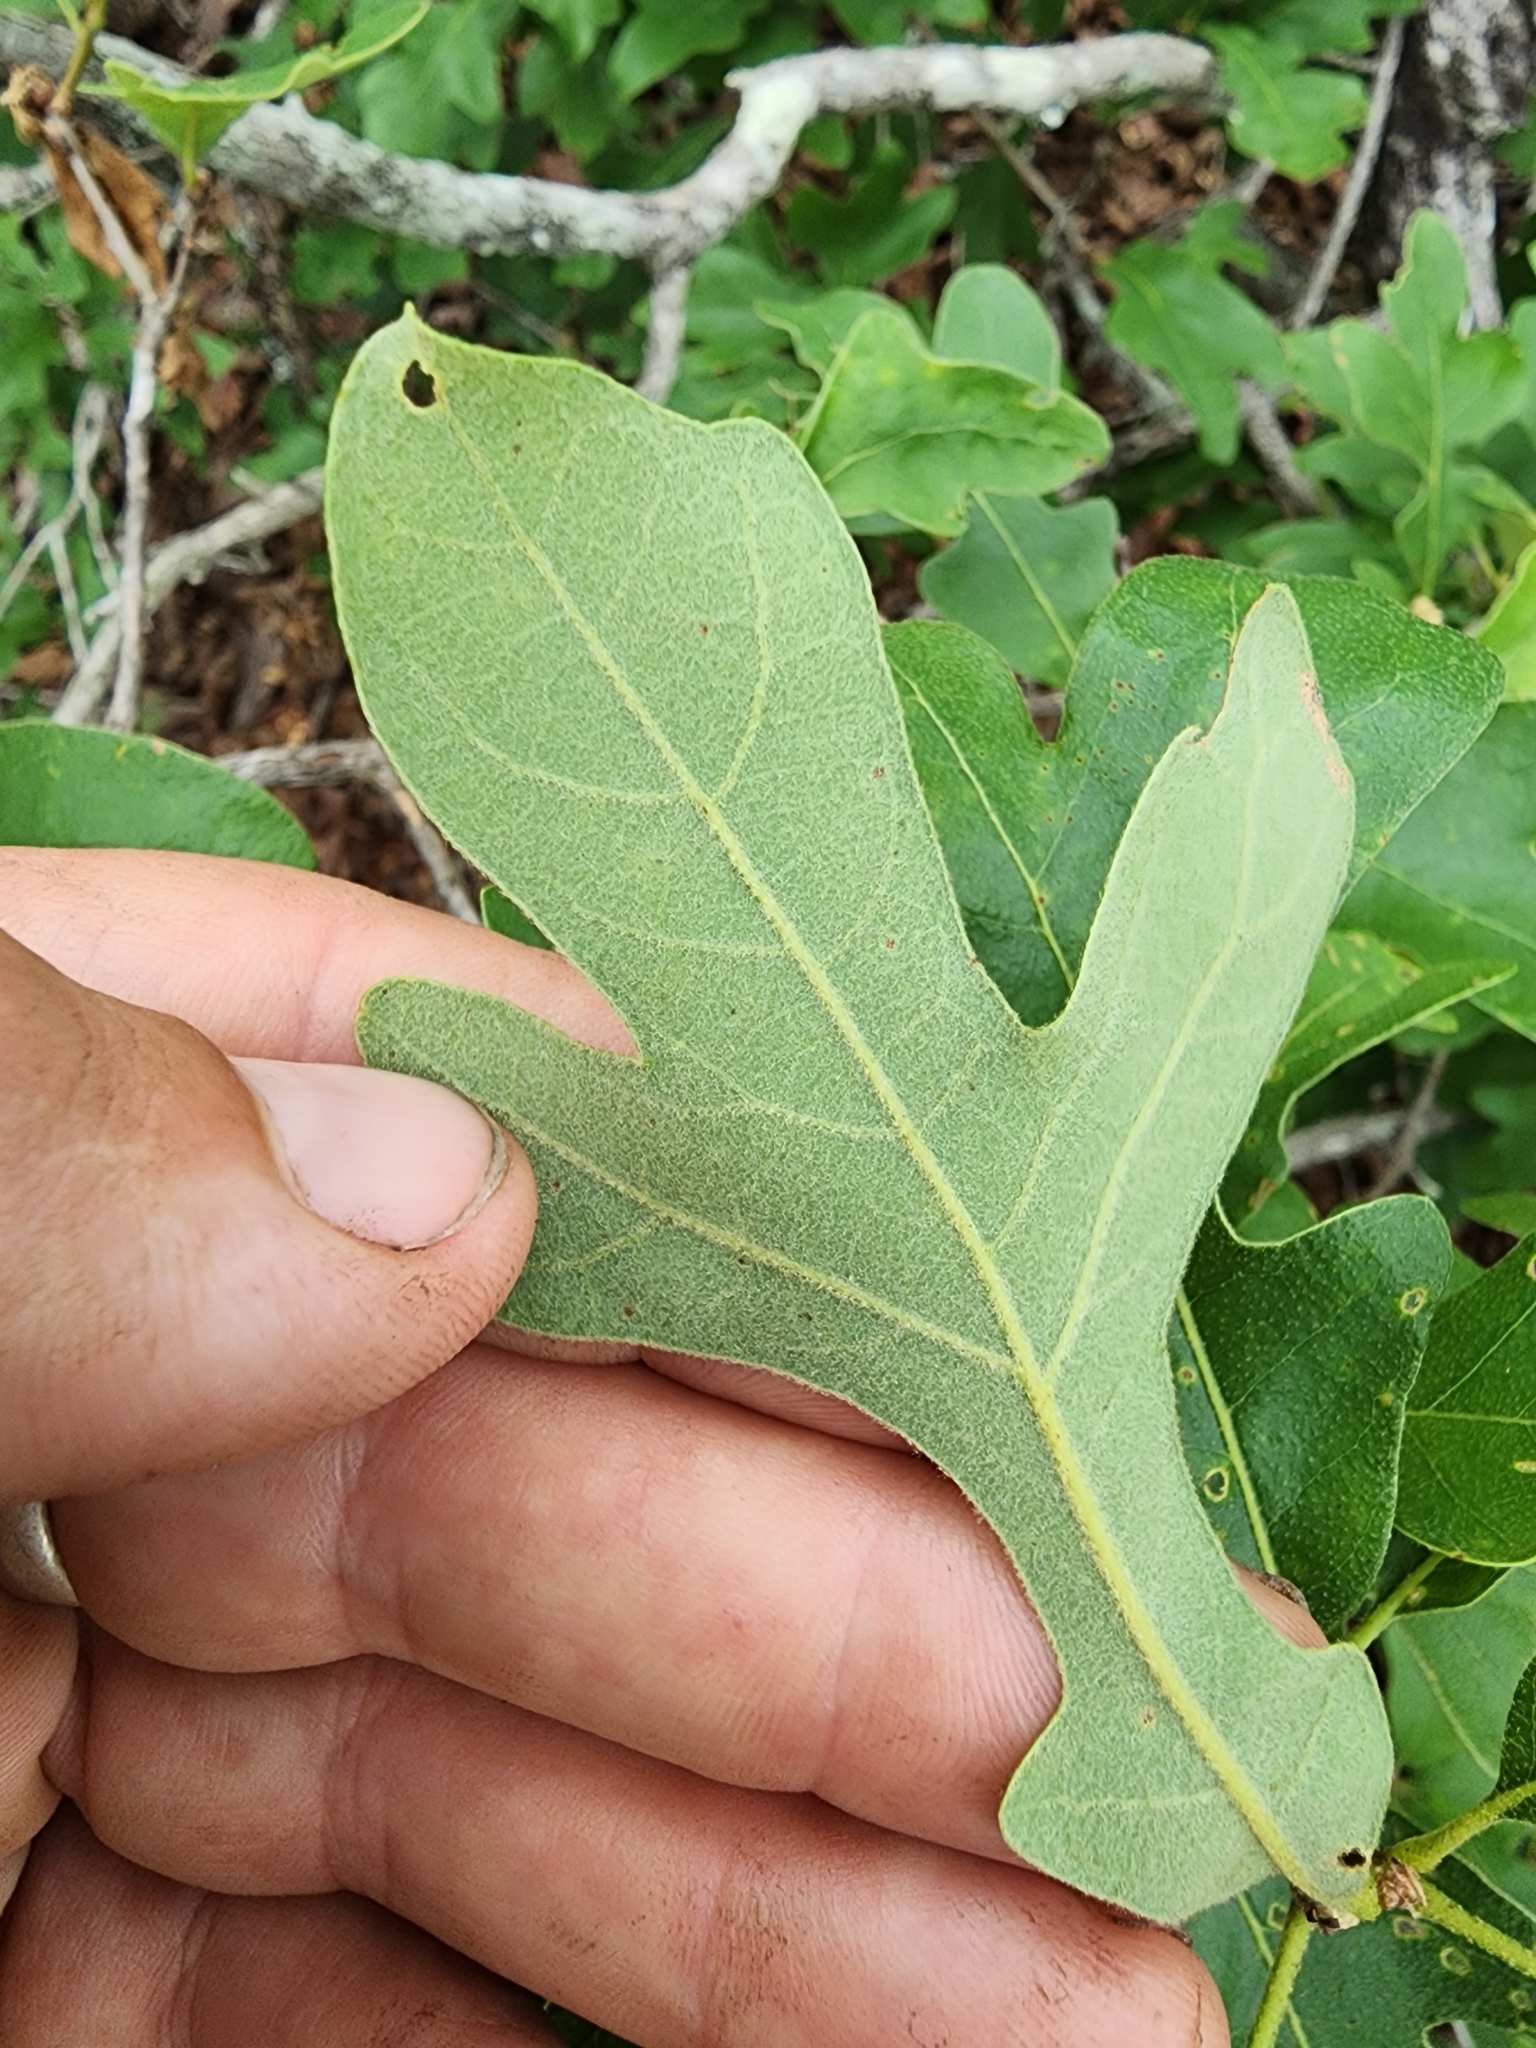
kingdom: Plantae
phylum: Tracheophyta
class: Magnoliopsida
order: Fagales
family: Fagaceae
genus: Quercus
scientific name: Quercus margaretiae
